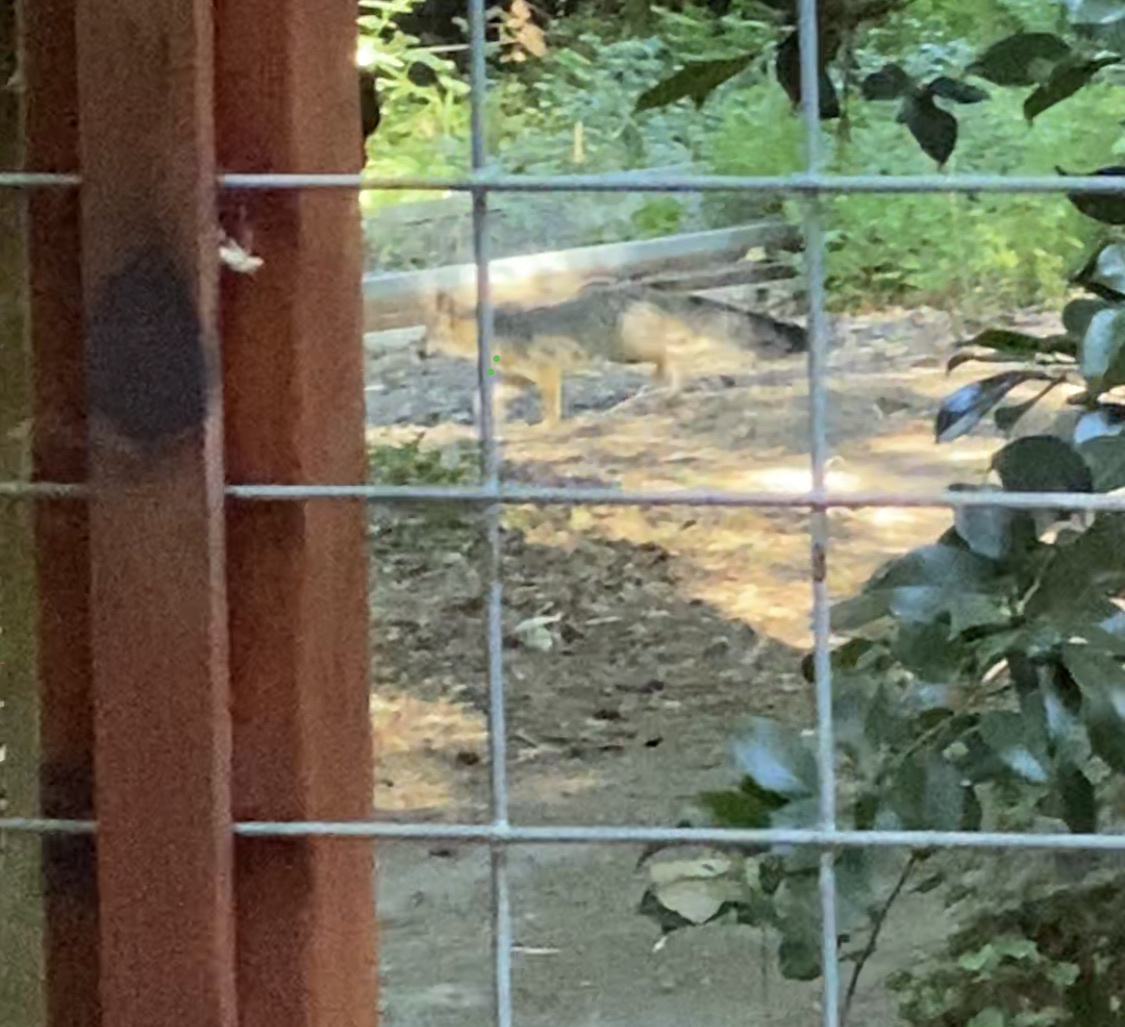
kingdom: Animalia
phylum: Chordata
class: Mammalia
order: Carnivora
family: Canidae
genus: Urocyon
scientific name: Urocyon cinereoargenteus
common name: Gray fox
